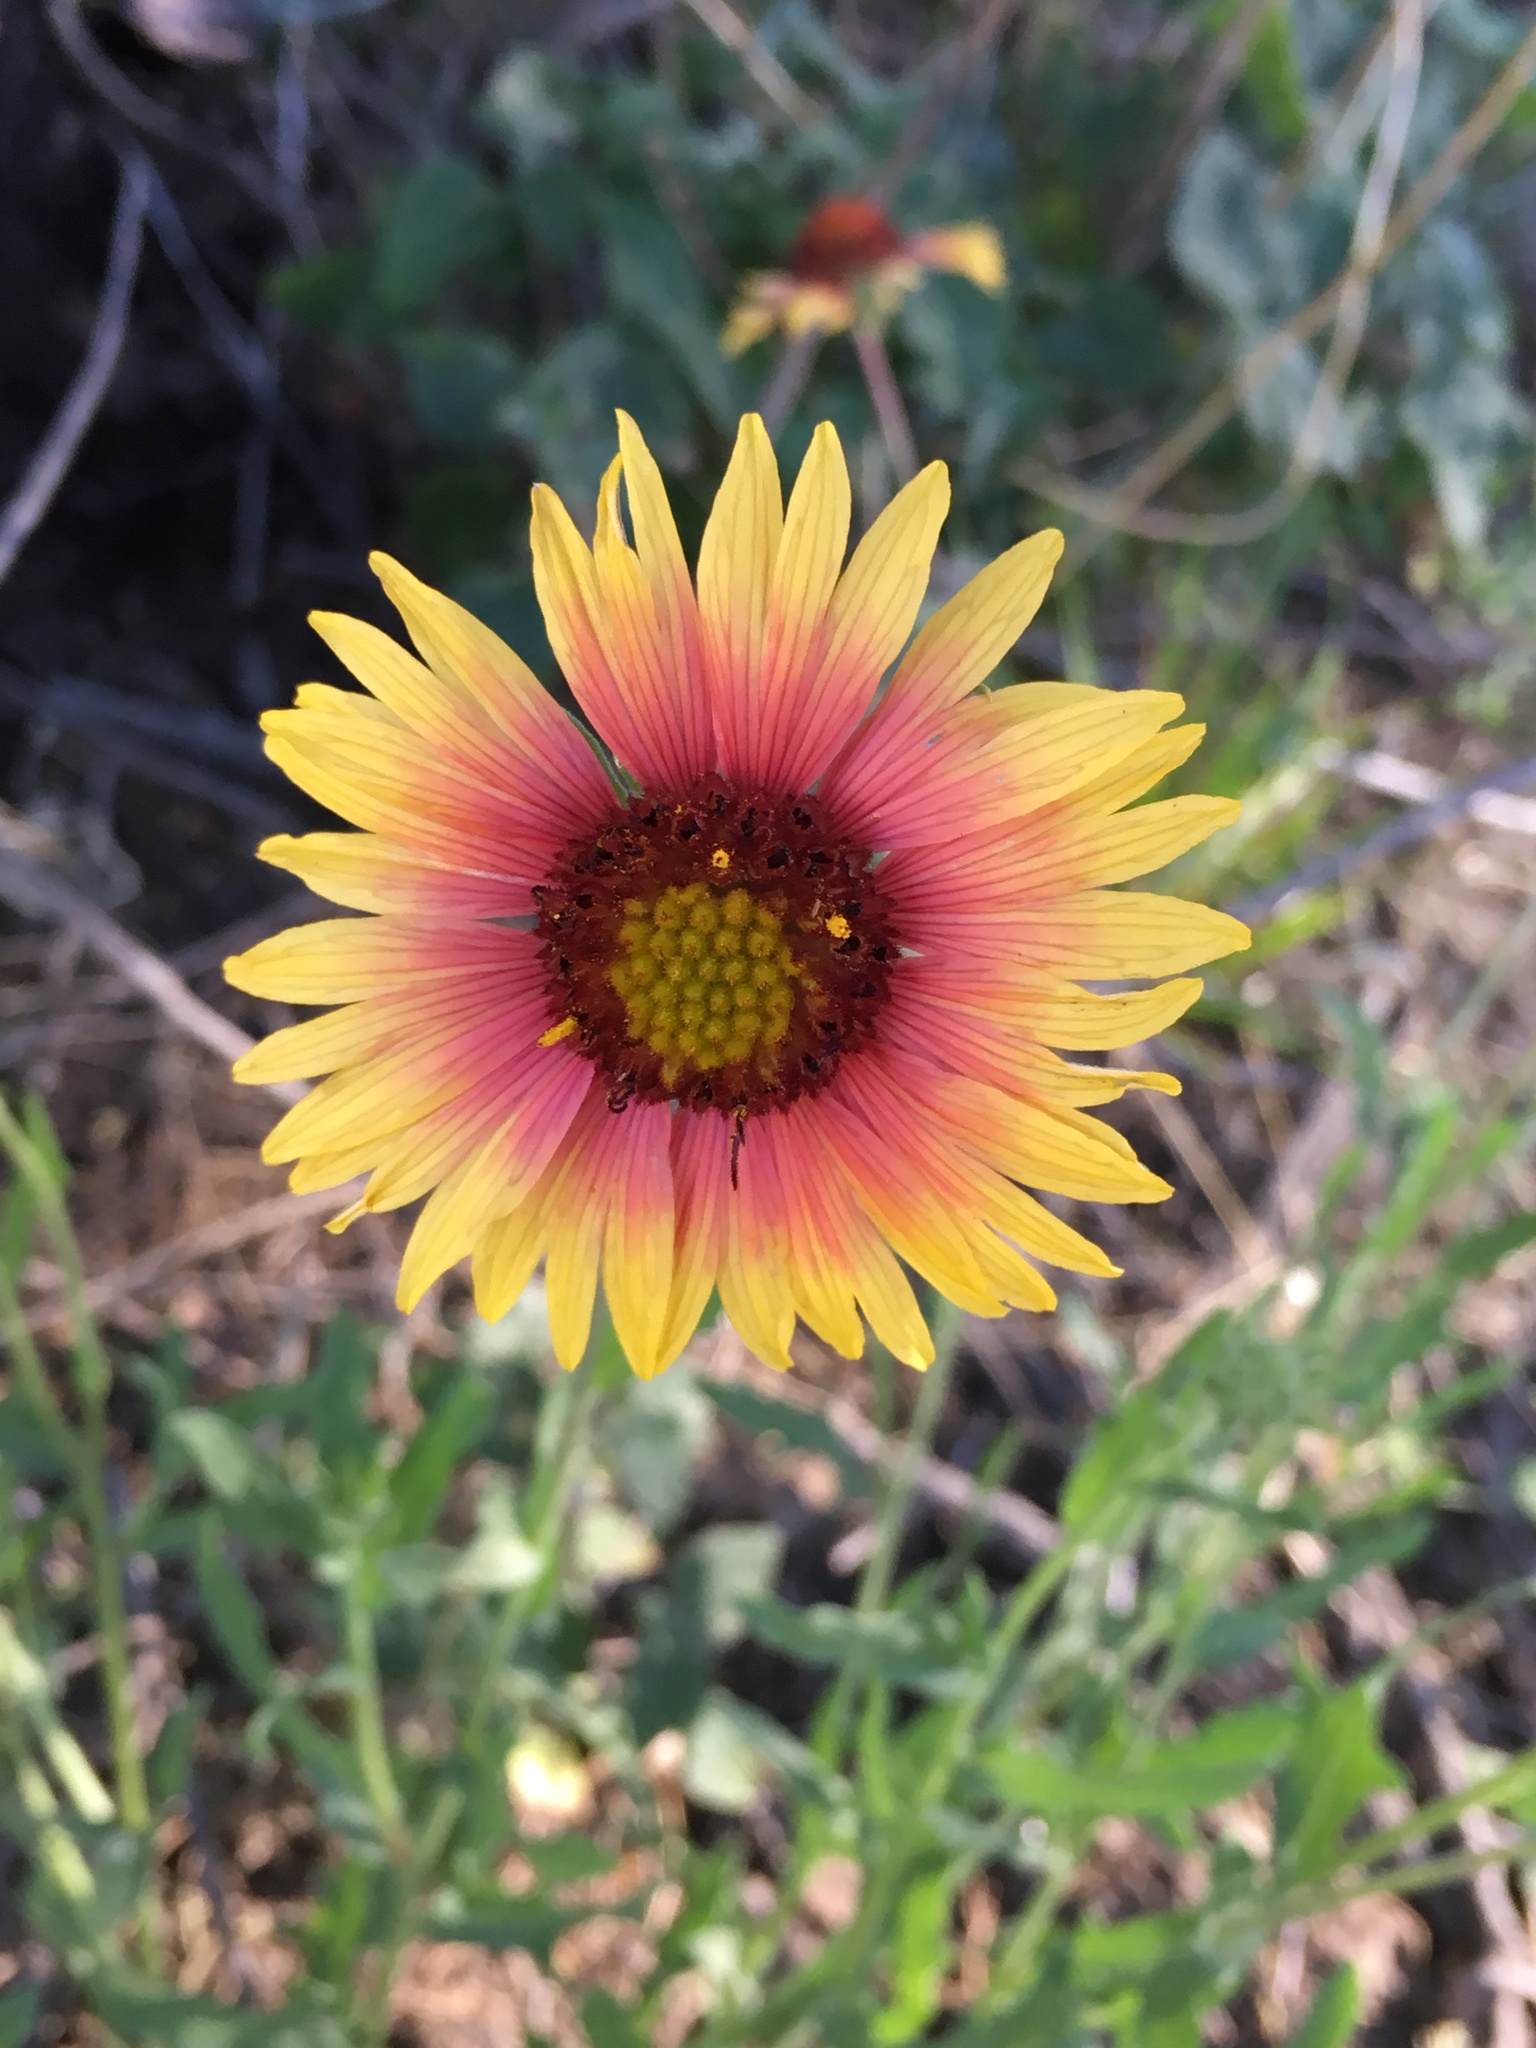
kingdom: Plantae
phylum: Tracheophyta
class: Magnoliopsida
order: Asterales
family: Asteraceae
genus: Gaillardia
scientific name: Gaillardia pulchella
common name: Firewheel
